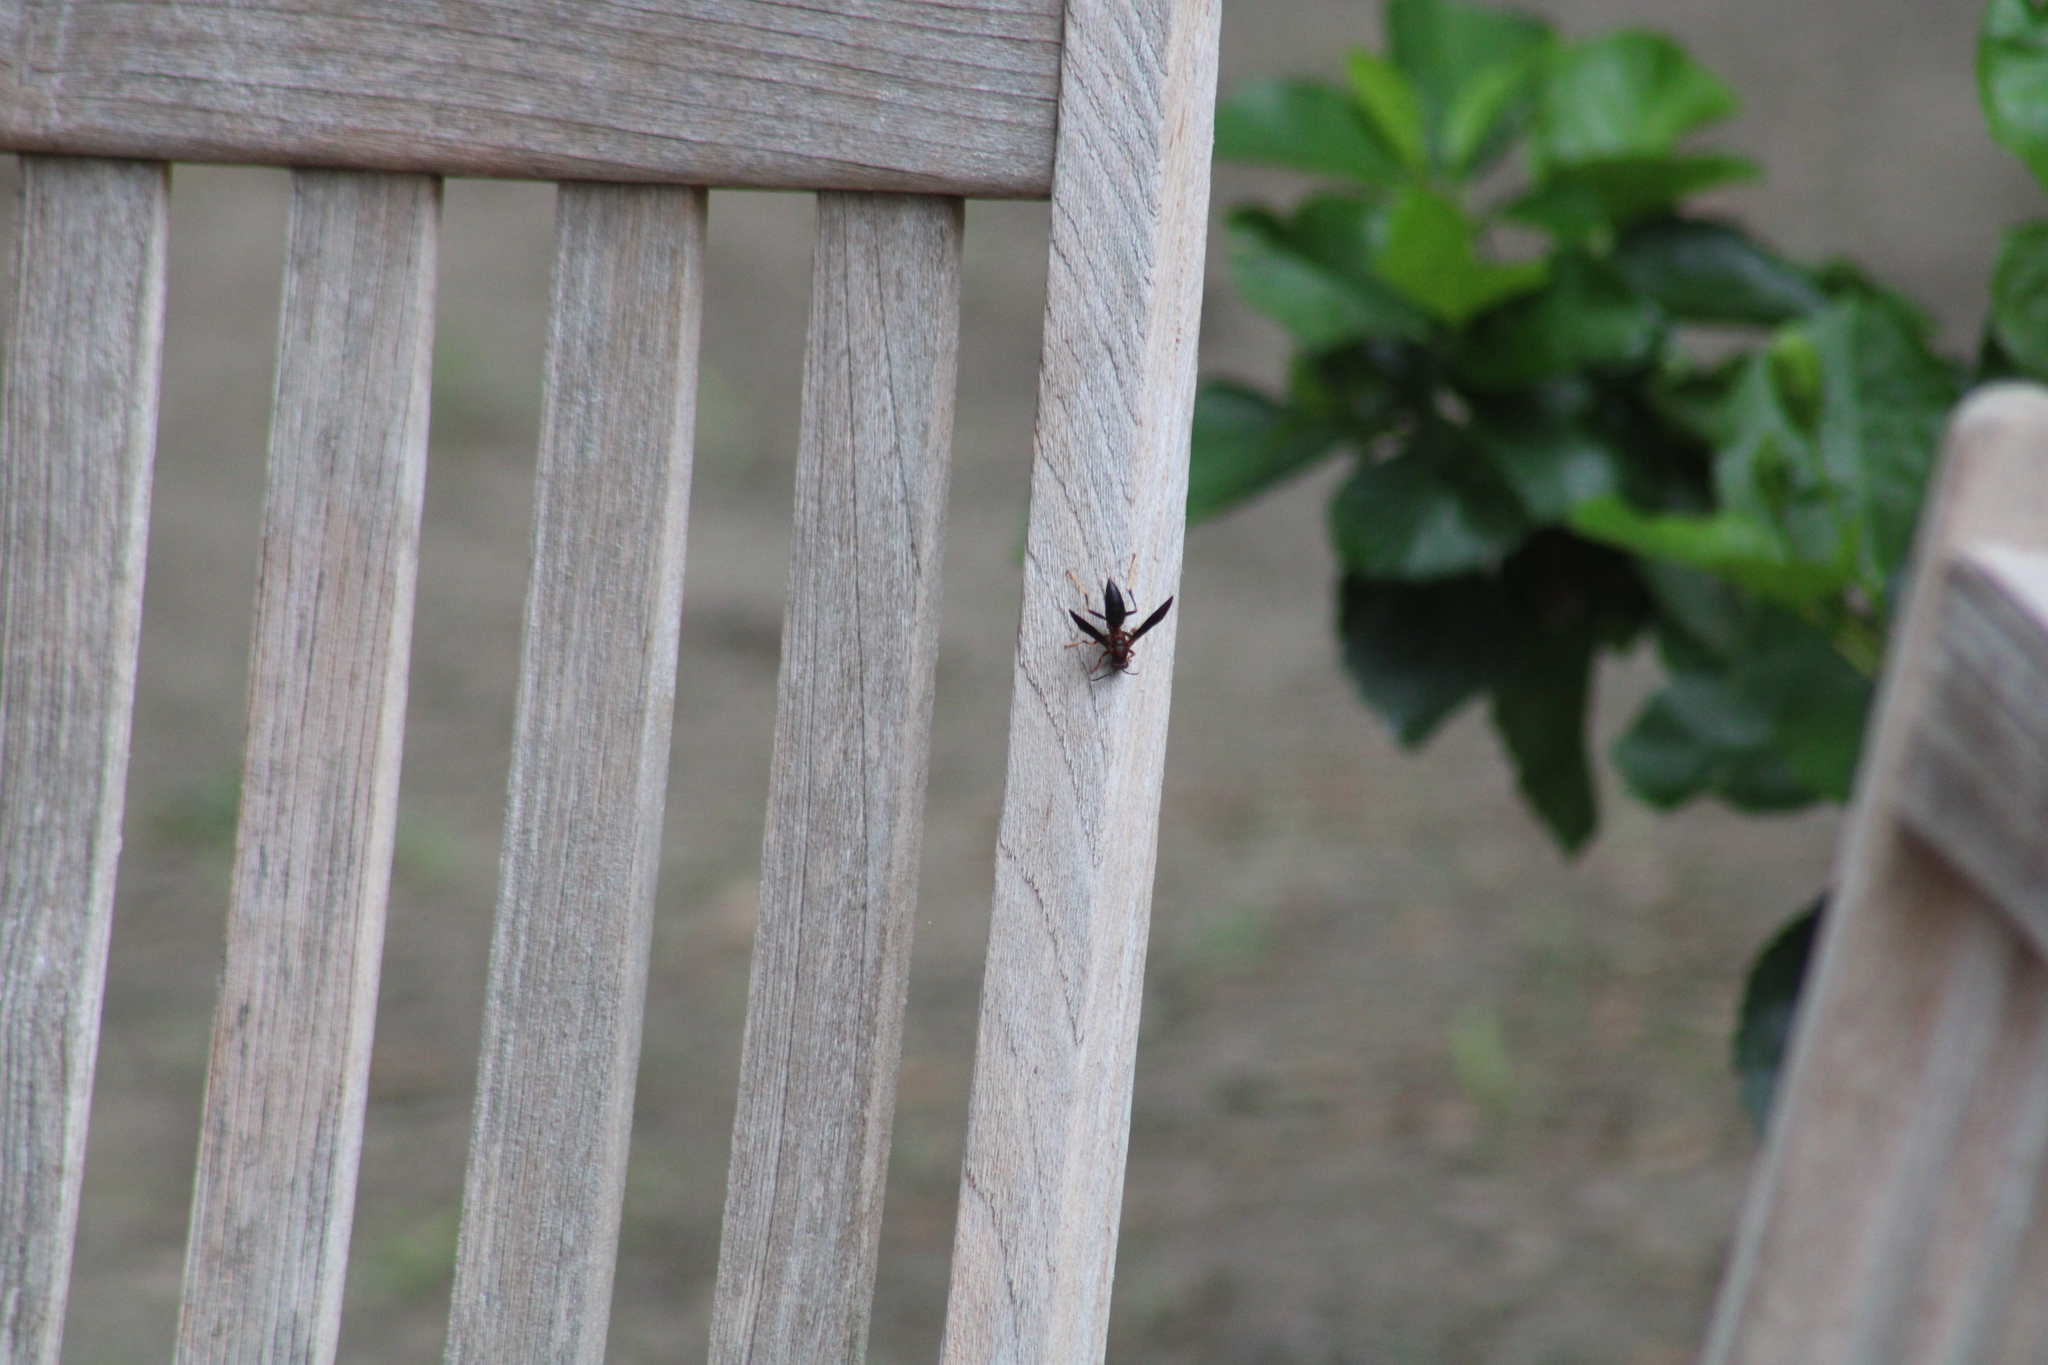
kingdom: Animalia
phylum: Arthropoda
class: Insecta
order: Hymenoptera
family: Eumenidae
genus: Polistes
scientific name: Polistes metricus
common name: Metric paper wasp
